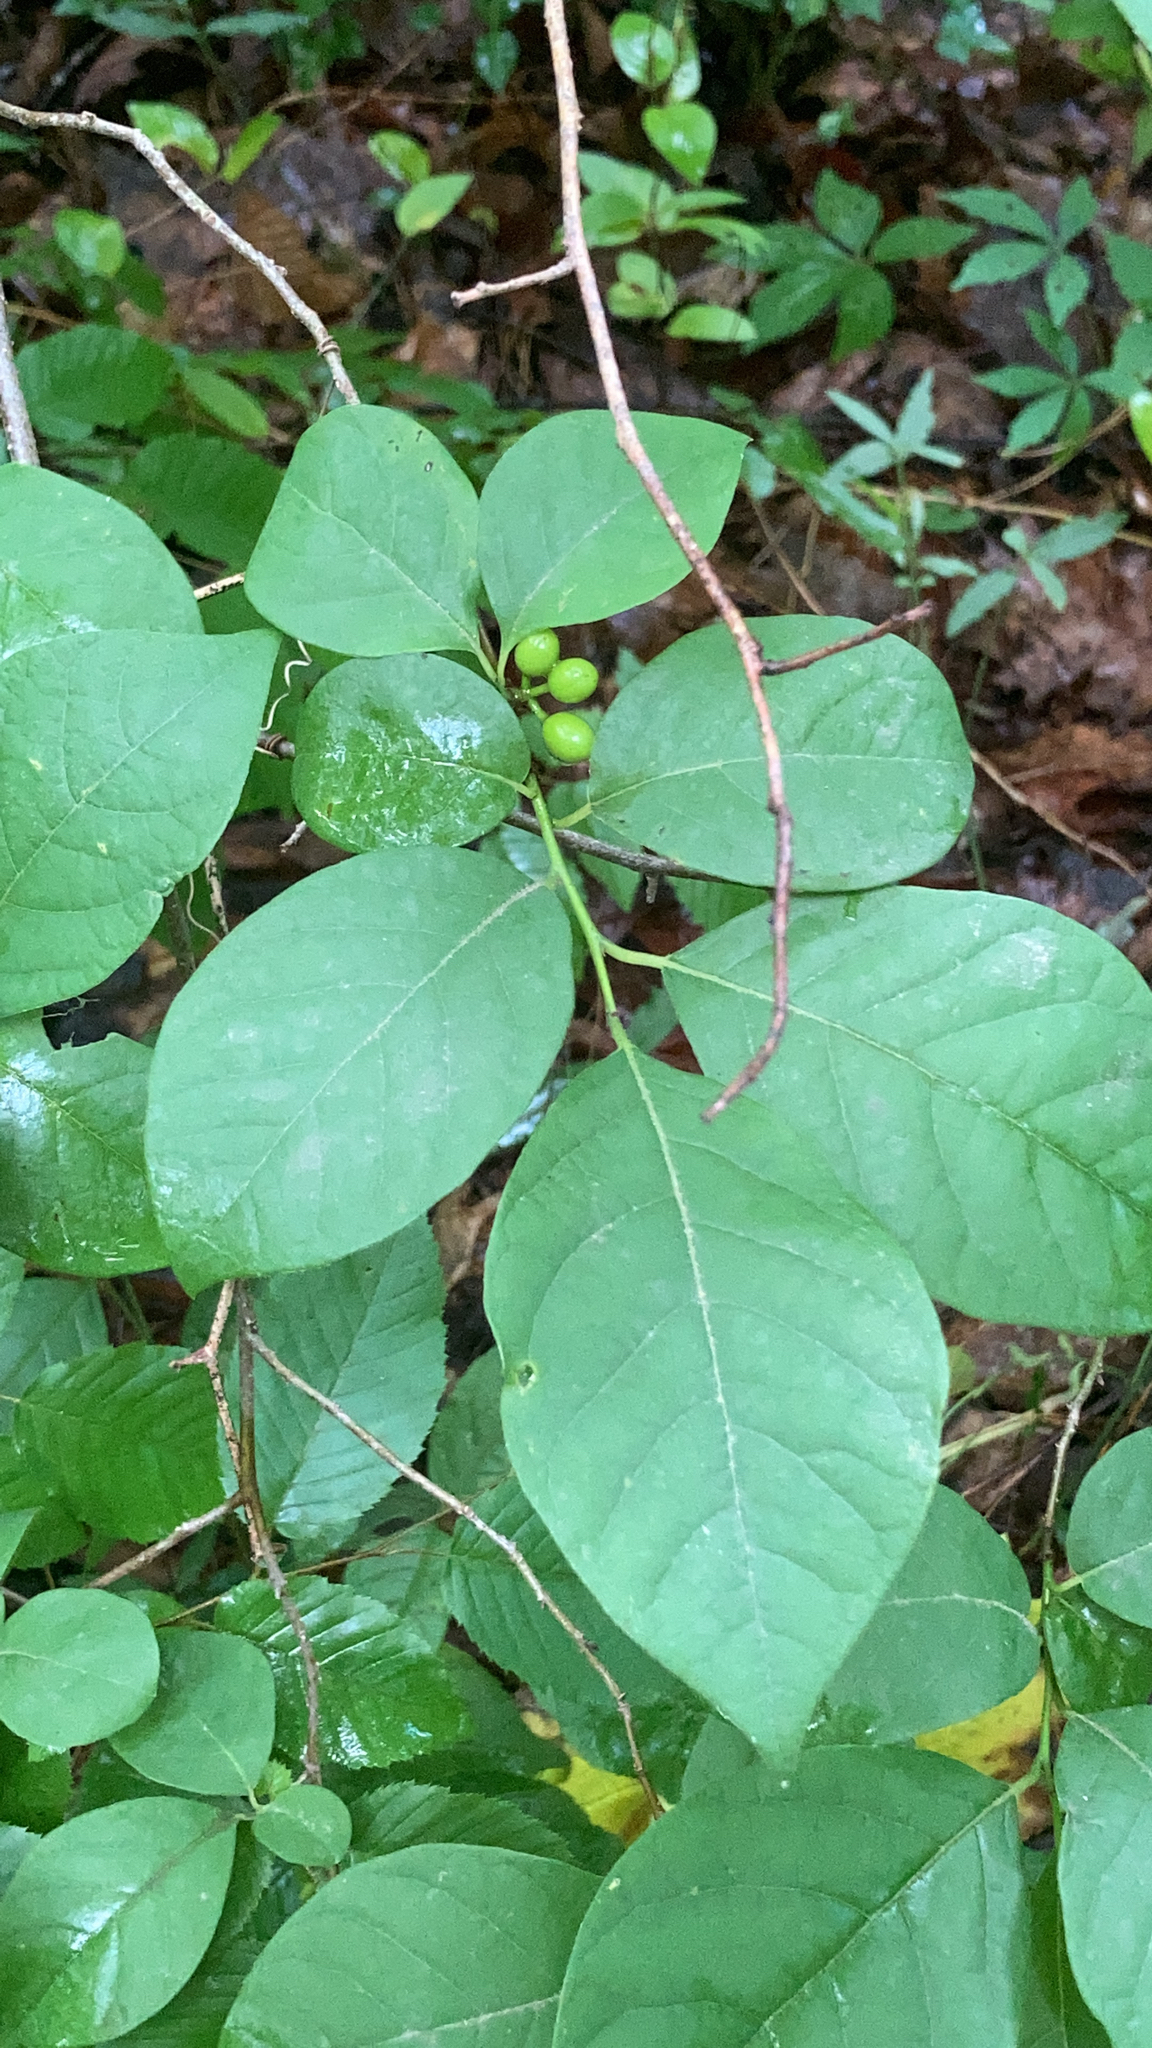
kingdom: Plantae
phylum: Tracheophyta
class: Magnoliopsida
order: Laurales
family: Lauraceae
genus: Lindera
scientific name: Lindera benzoin
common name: Spicebush
